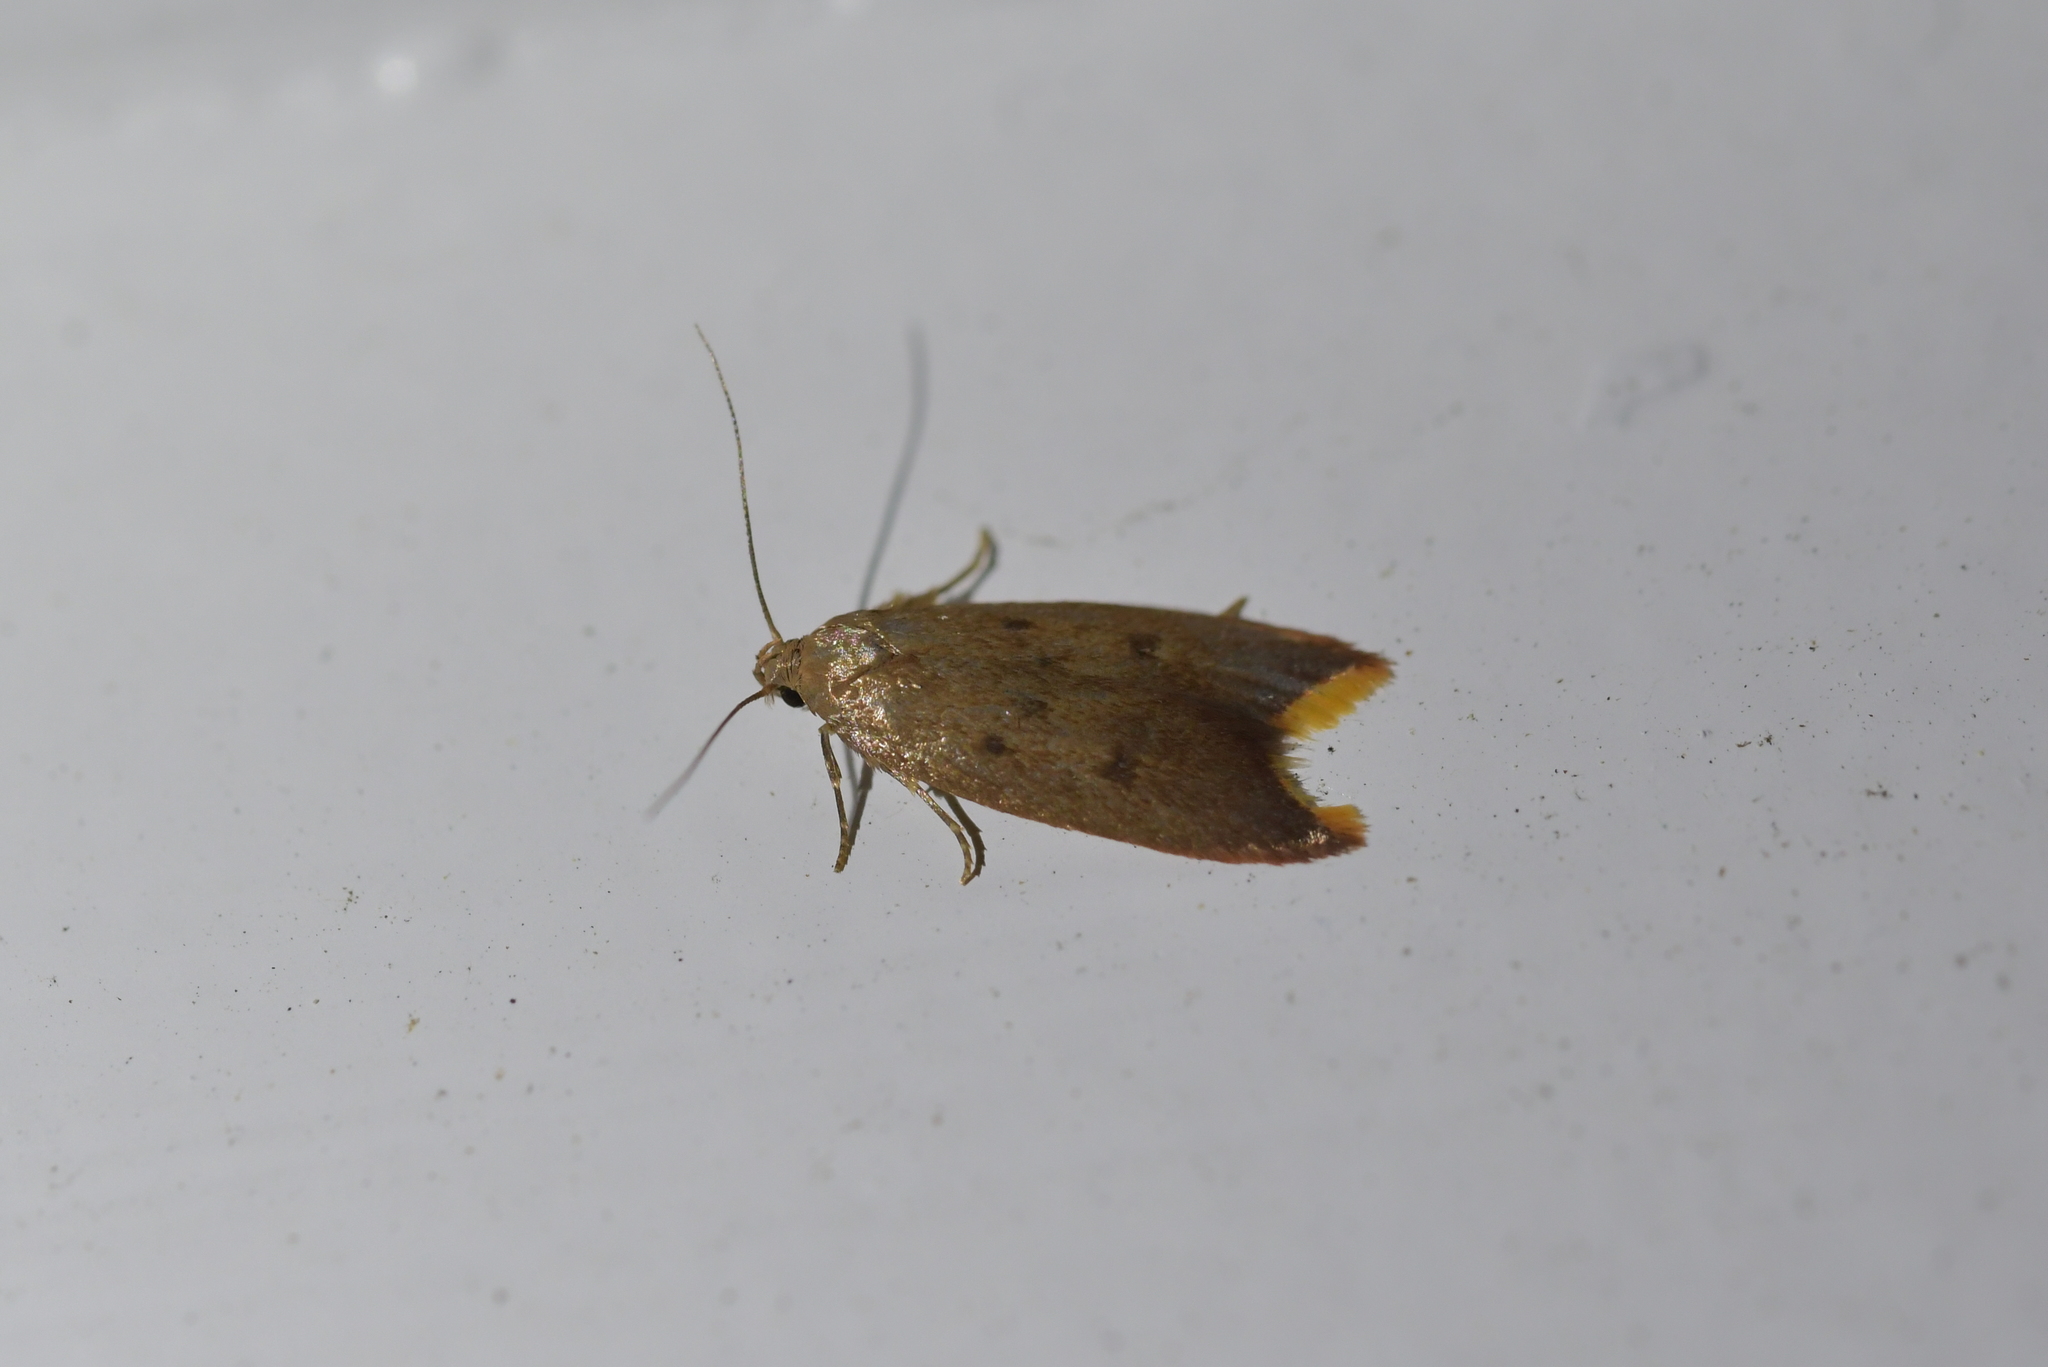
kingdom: Animalia
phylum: Arthropoda
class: Insecta
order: Lepidoptera
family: Oecophoridae
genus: Tachystola
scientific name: Tachystola acroxantha
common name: Ruddy streak
